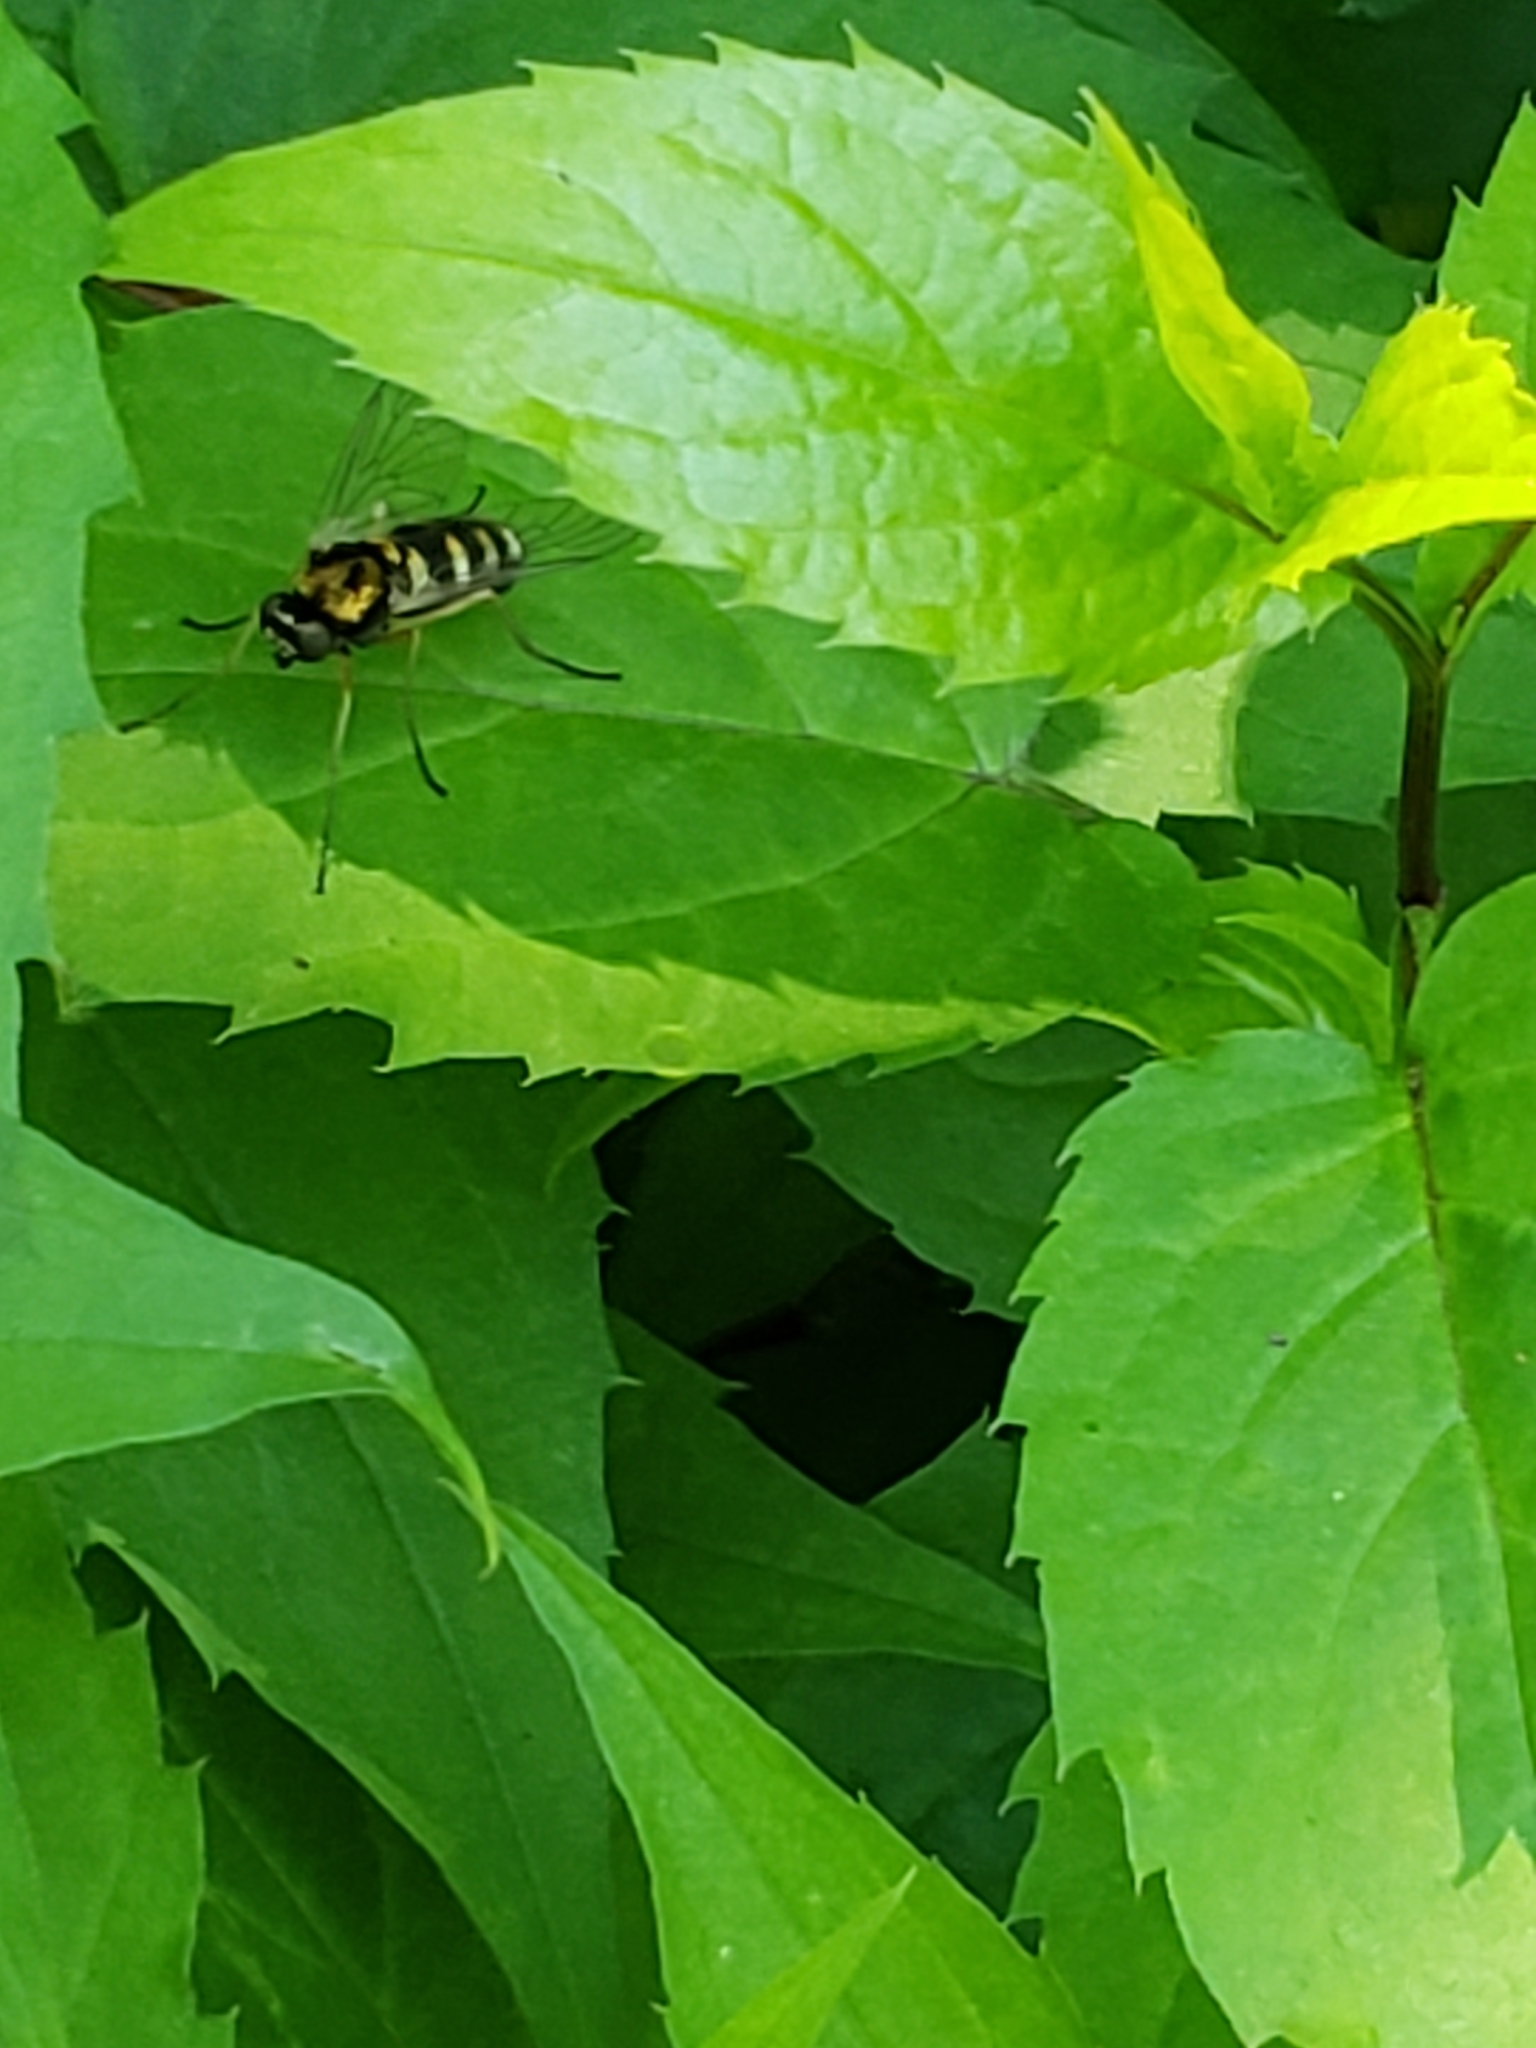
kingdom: Animalia
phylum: Arthropoda
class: Insecta
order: Diptera
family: Rhagionidae
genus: Chrysopilus
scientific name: Chrysopilus thoracicus
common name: Golden-backed snipe fly
